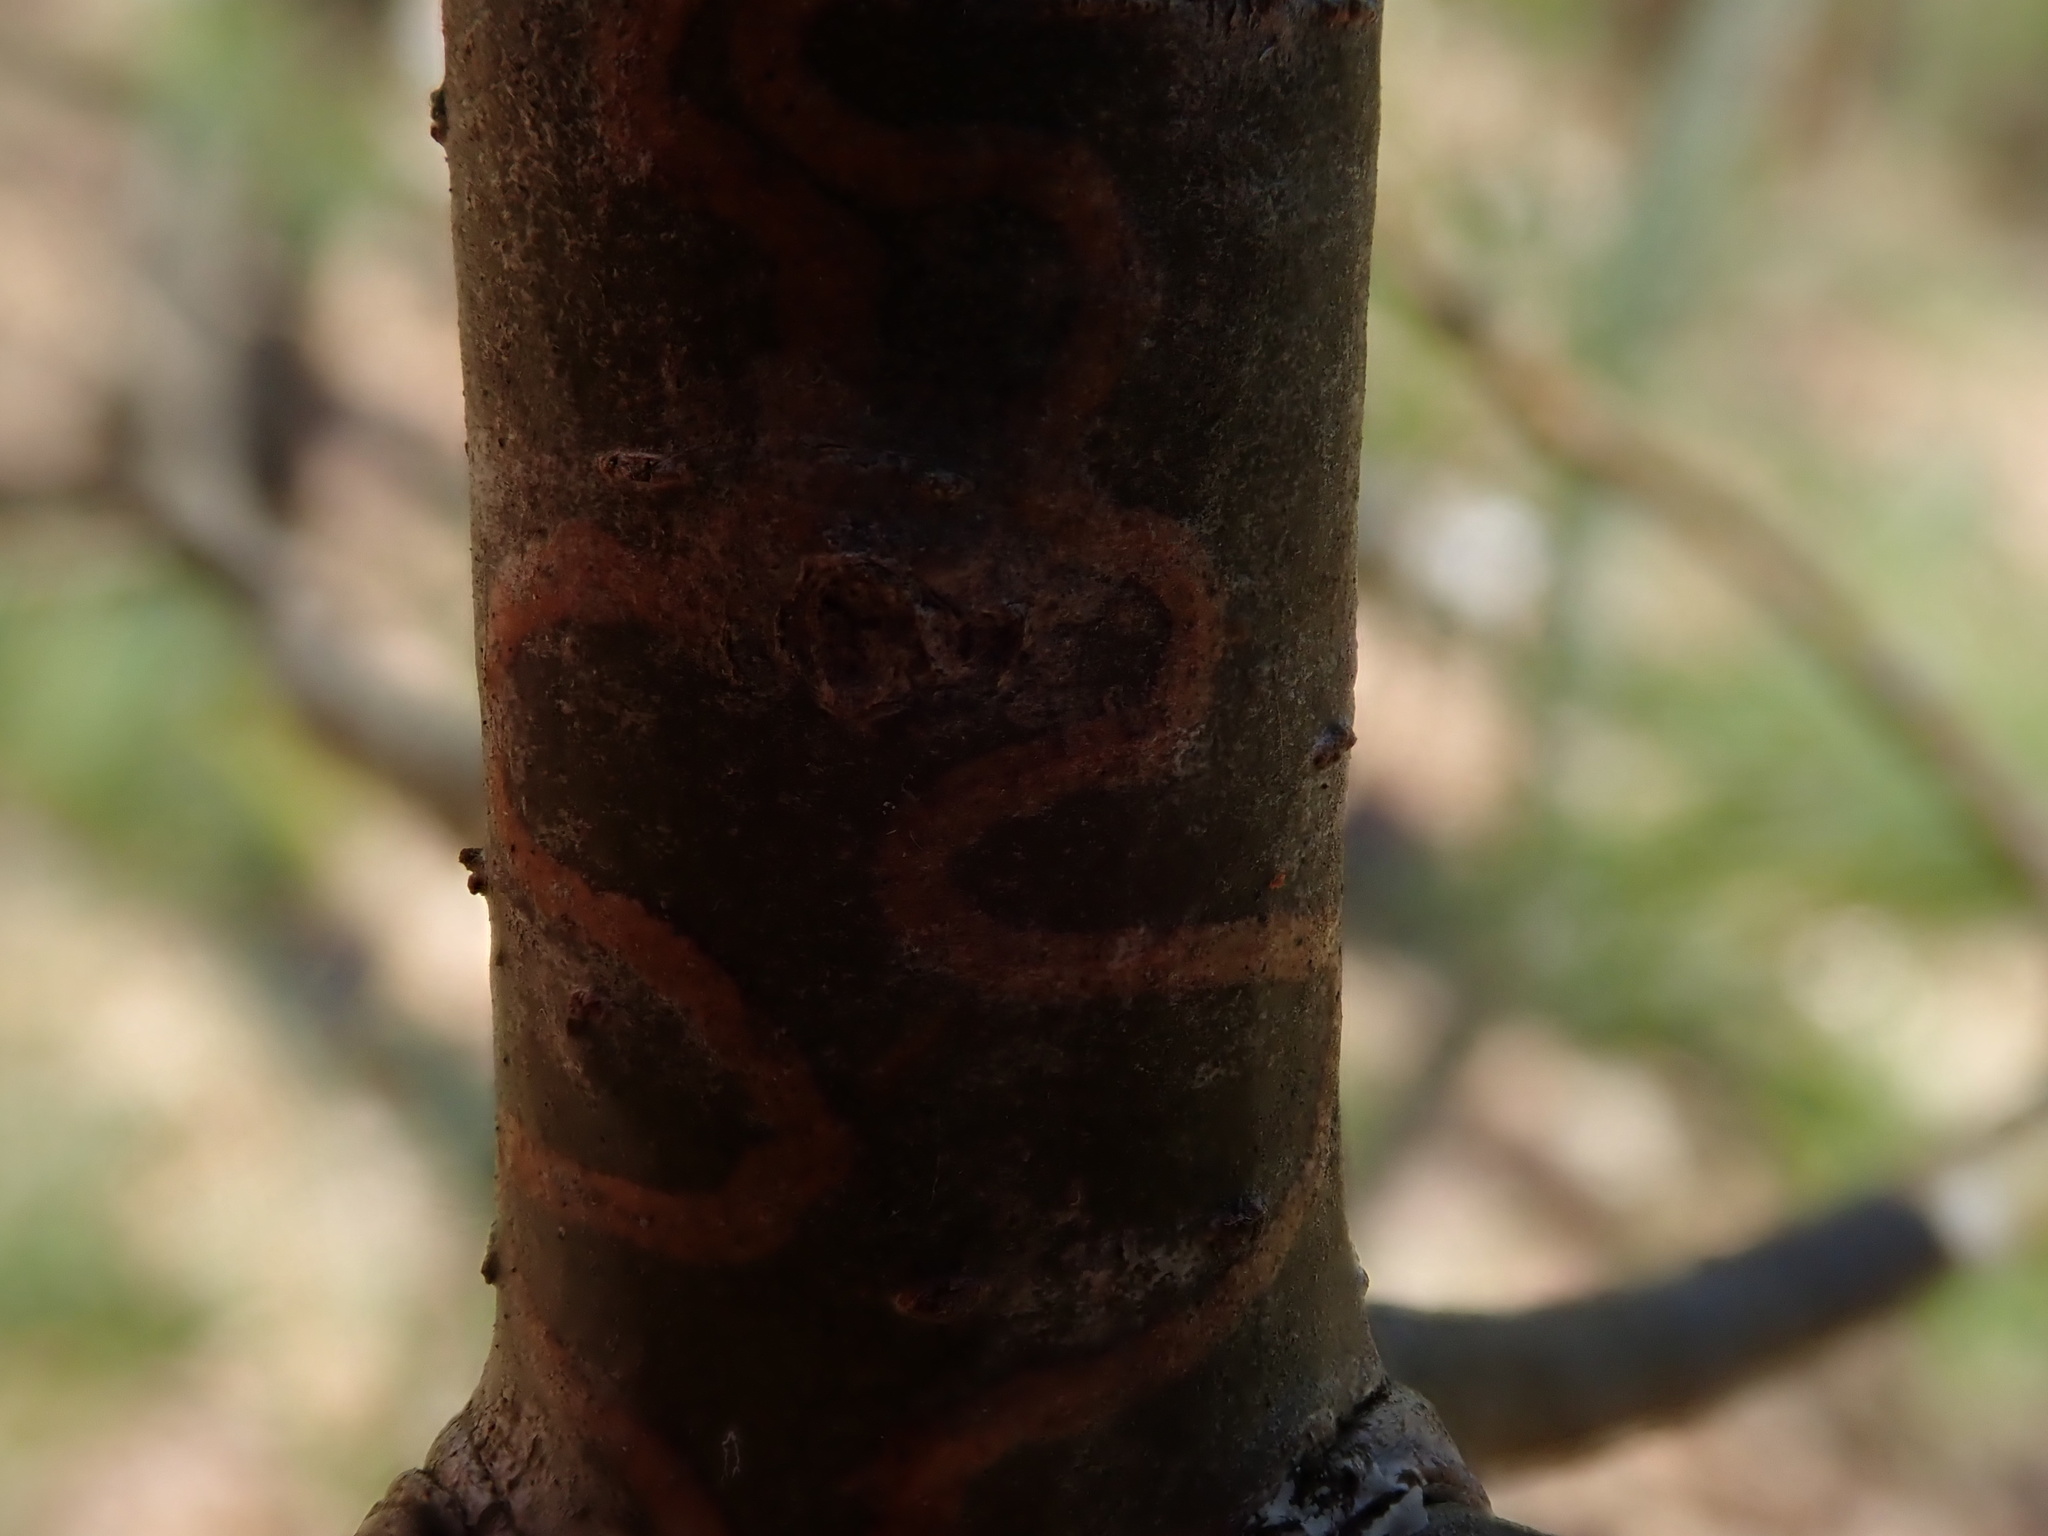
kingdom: Animalia
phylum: Arthropoda
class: Insecta
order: Lepidoptera
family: Gracillariidae
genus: Marmara
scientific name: Marmara fasciella
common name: White pine barkminer moth
